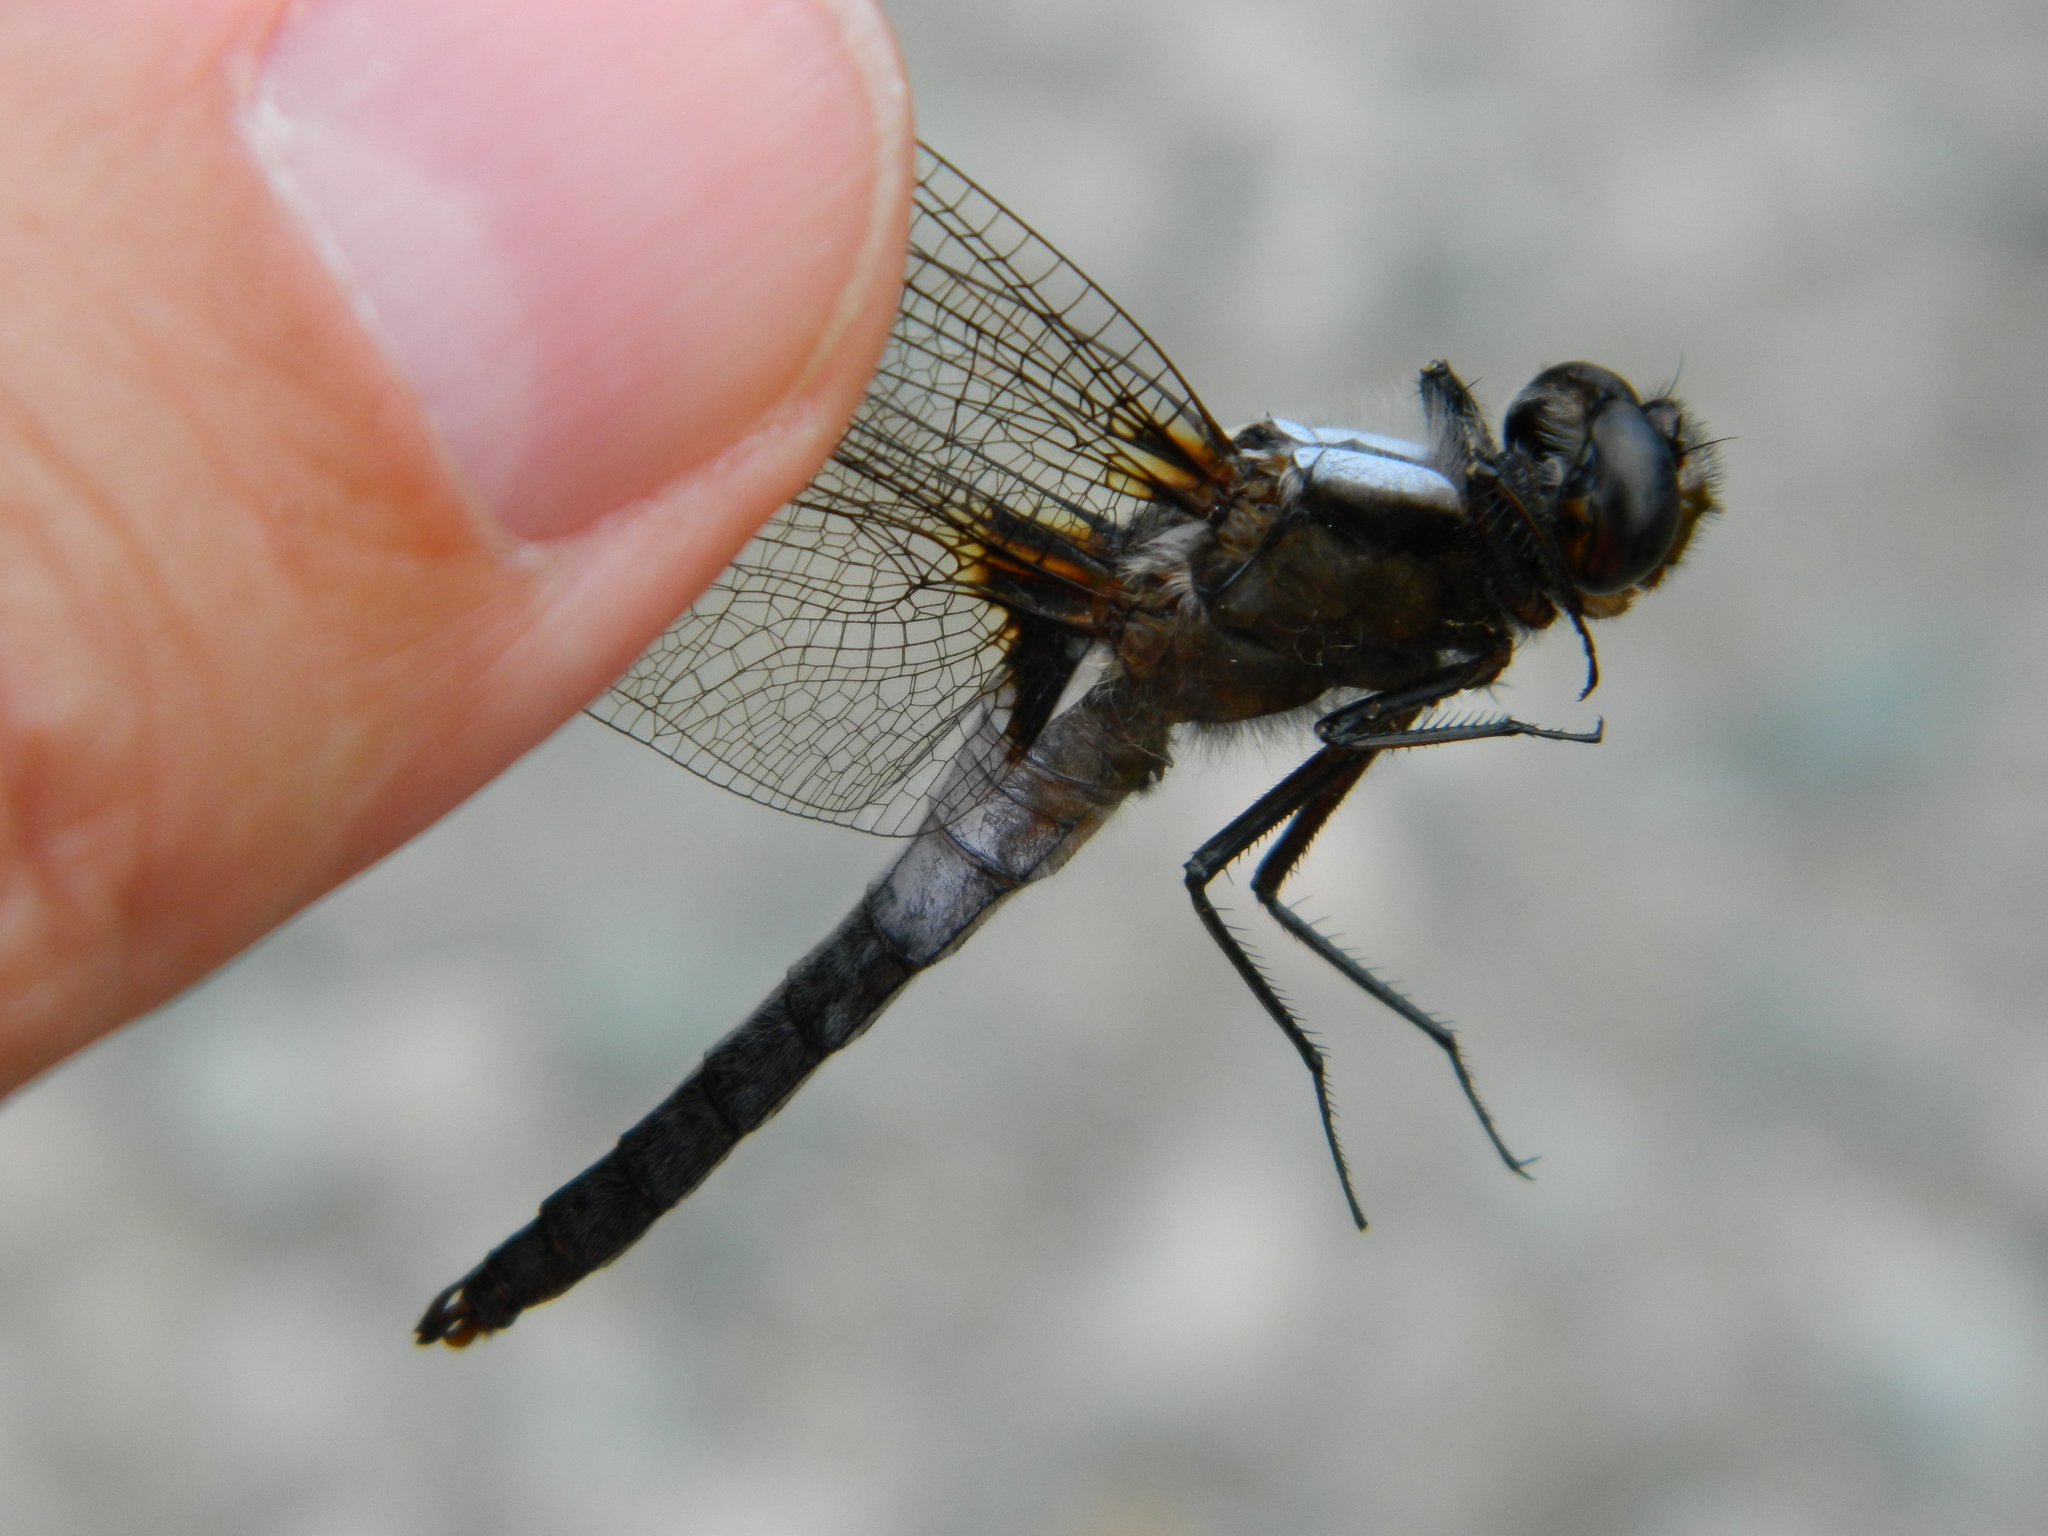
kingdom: Animalia
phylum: Arthropoda
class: Insecta
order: Odonata
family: Libellulidae
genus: Ladona
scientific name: Ladona julia
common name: Chalk-fronted corporal
